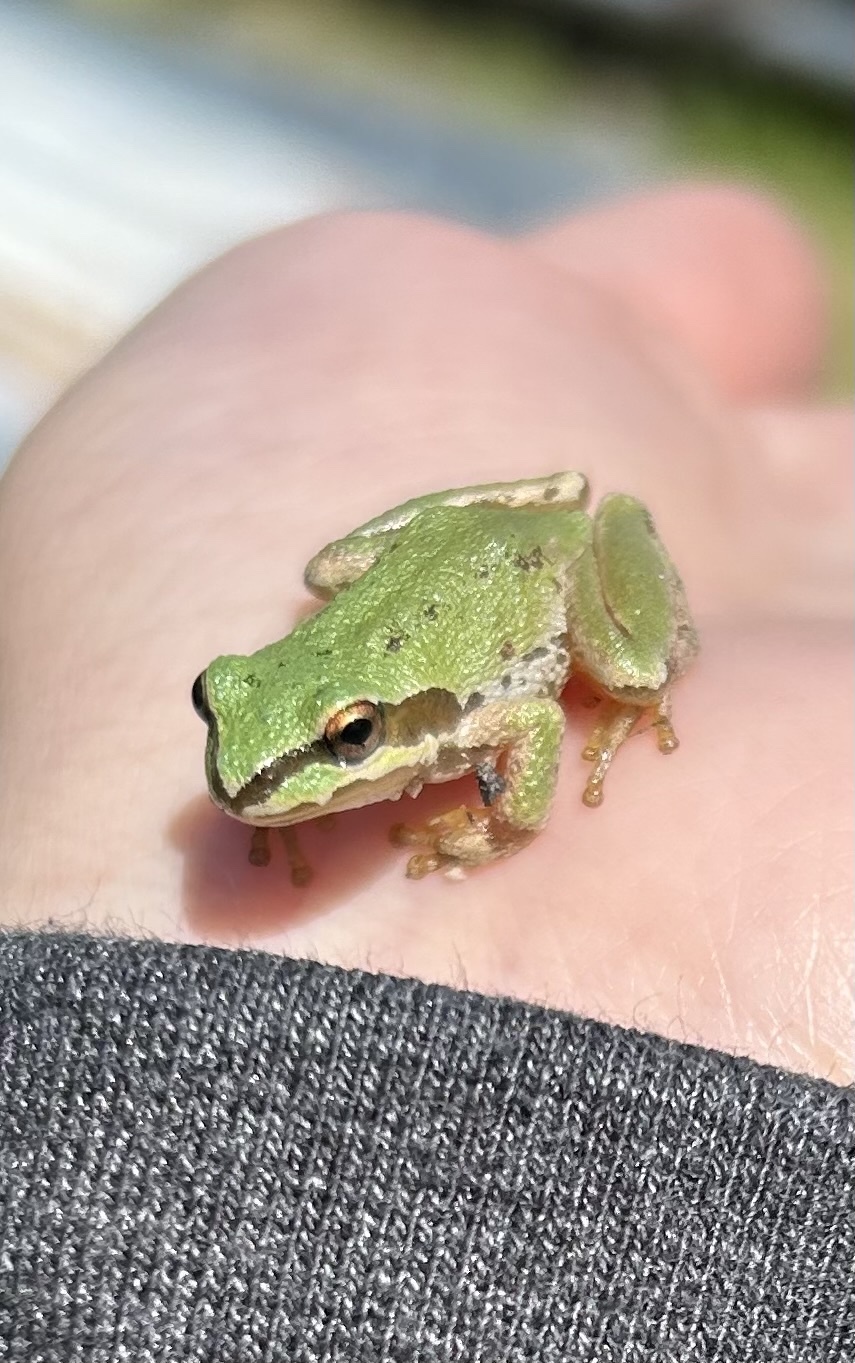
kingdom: Animalia
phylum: Chordata
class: Amphibia
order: Anura
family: Hylidae
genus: Pseudacris
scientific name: Pseudacris regilla
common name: Pacific chorus frog
